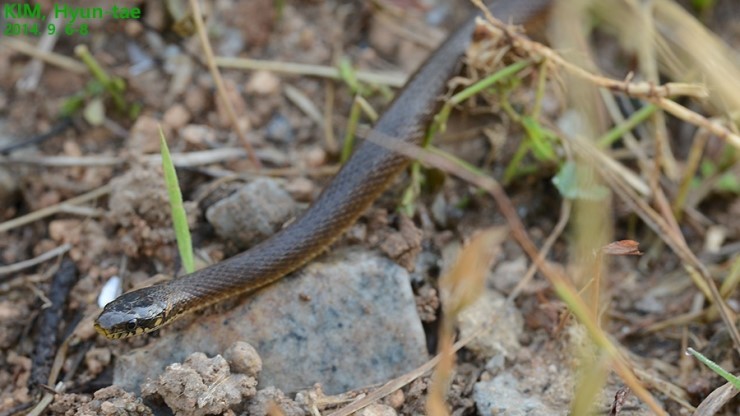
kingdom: Animalia
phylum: Chordata
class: Squamata
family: Colubridae
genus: Hebius
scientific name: Hebius vibakari
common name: Japanese keelback
